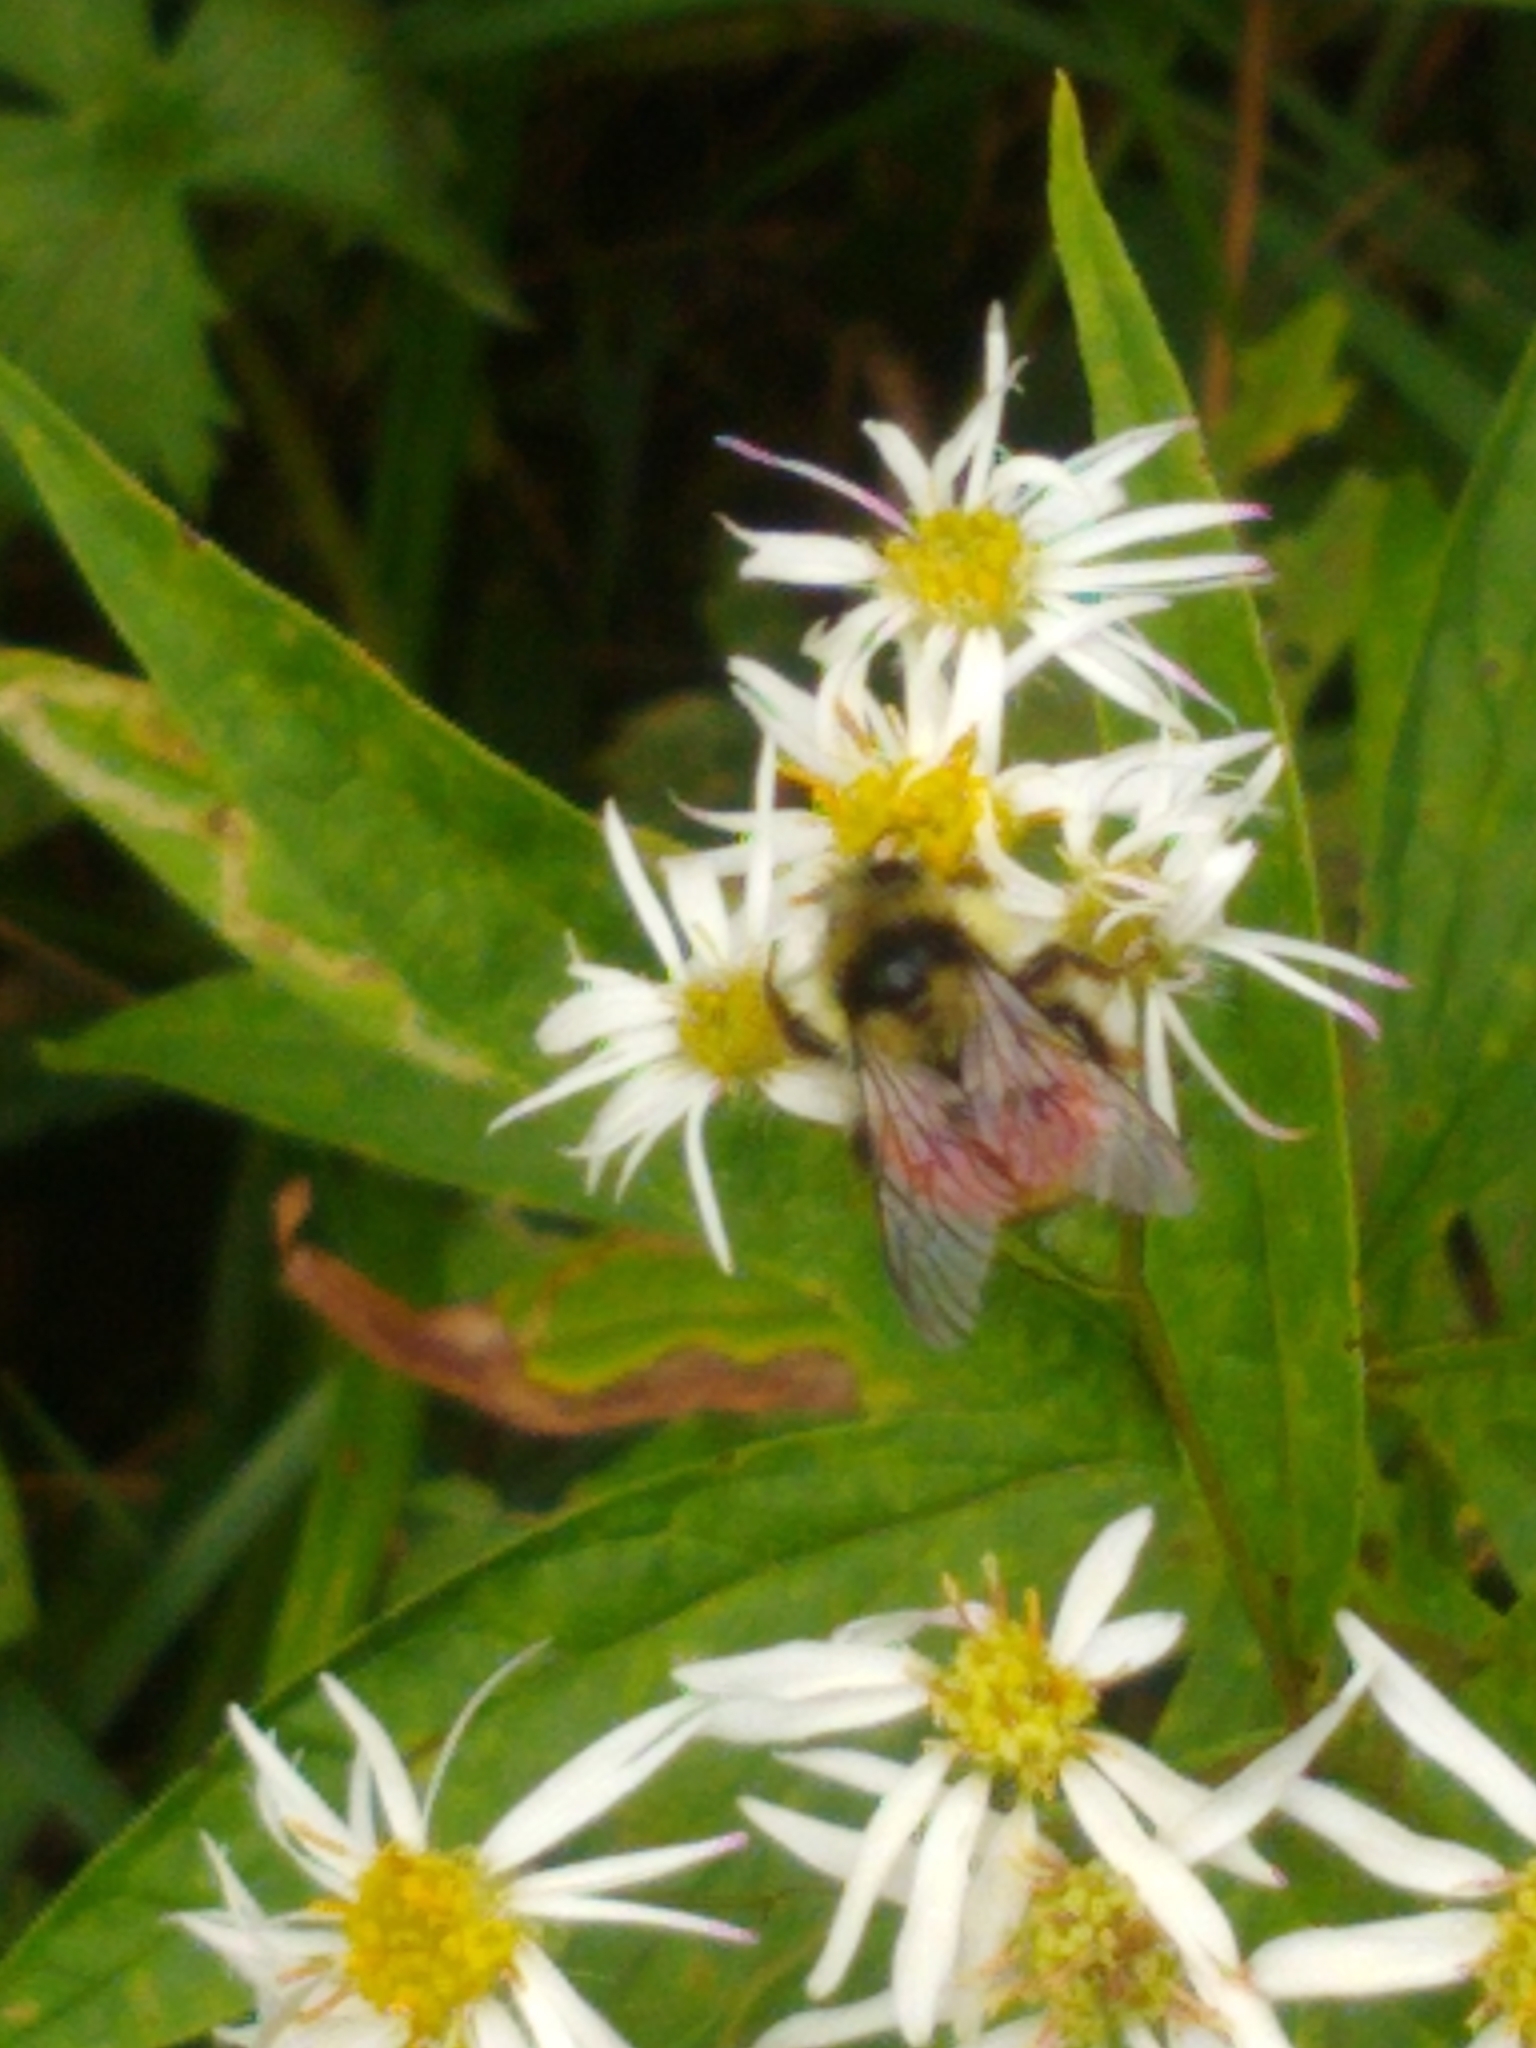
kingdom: Animalia
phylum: Arthropoda
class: Insecta
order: Hymenoptera
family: Apidae
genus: Bombus
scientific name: Bombus ternarius
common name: Tri-colored bumble bee
